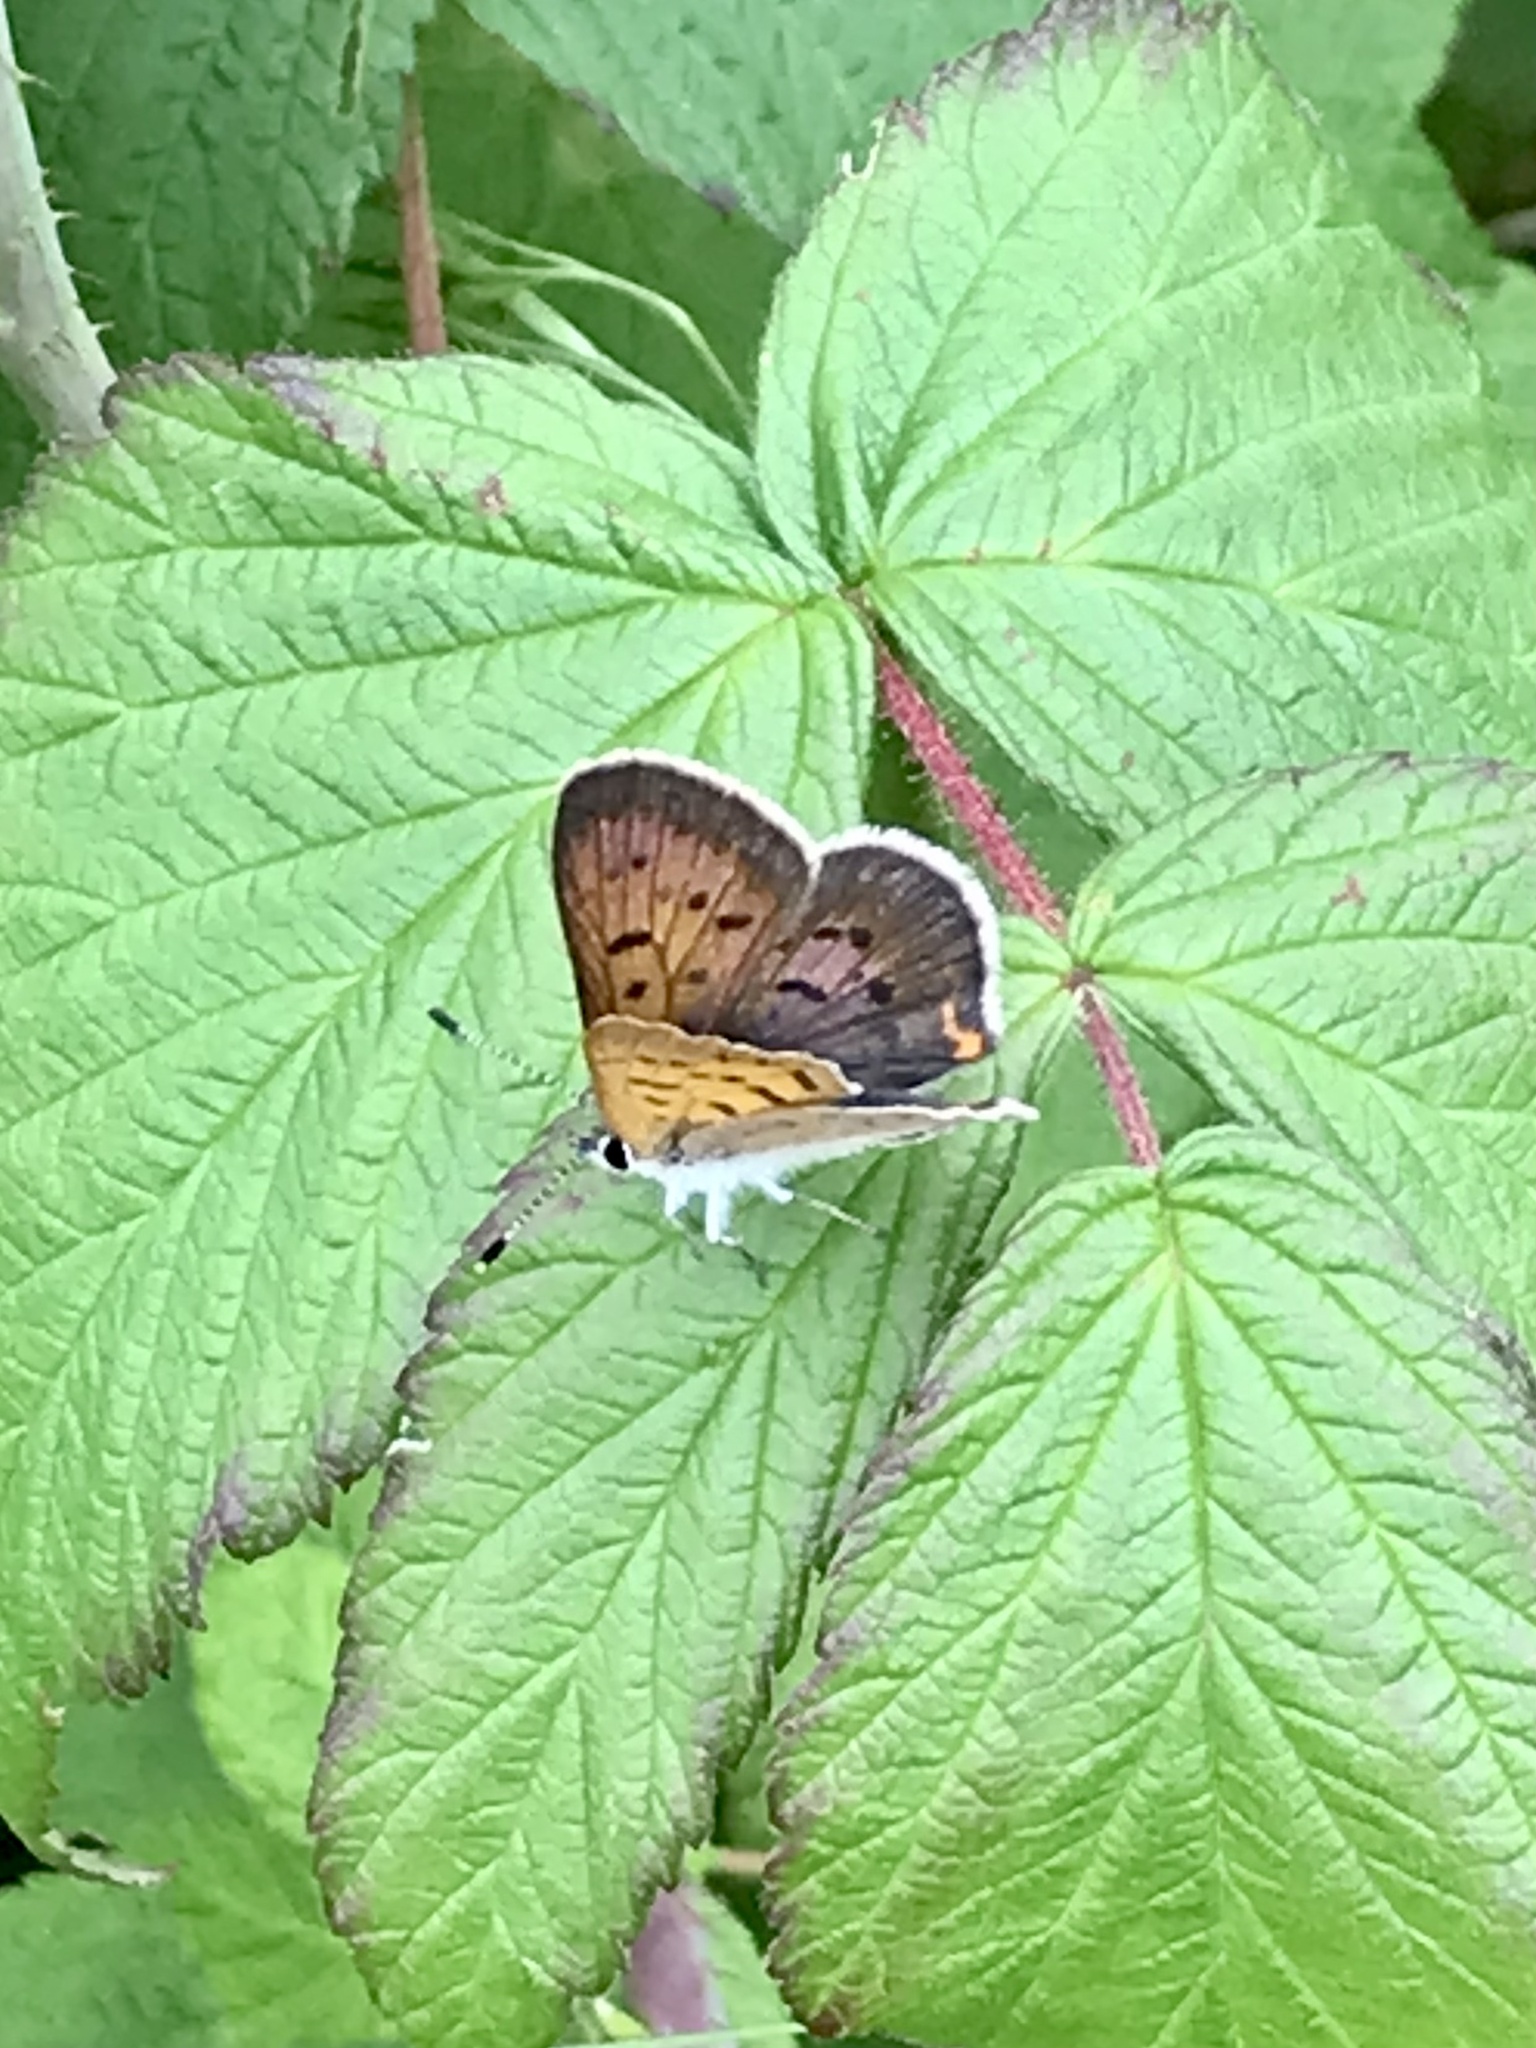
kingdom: Animalia
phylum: Arthropoda
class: Insecta
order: Lepidoptera
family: Lycaenidae
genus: Tharsalea
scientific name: Tharsalea dorcas
